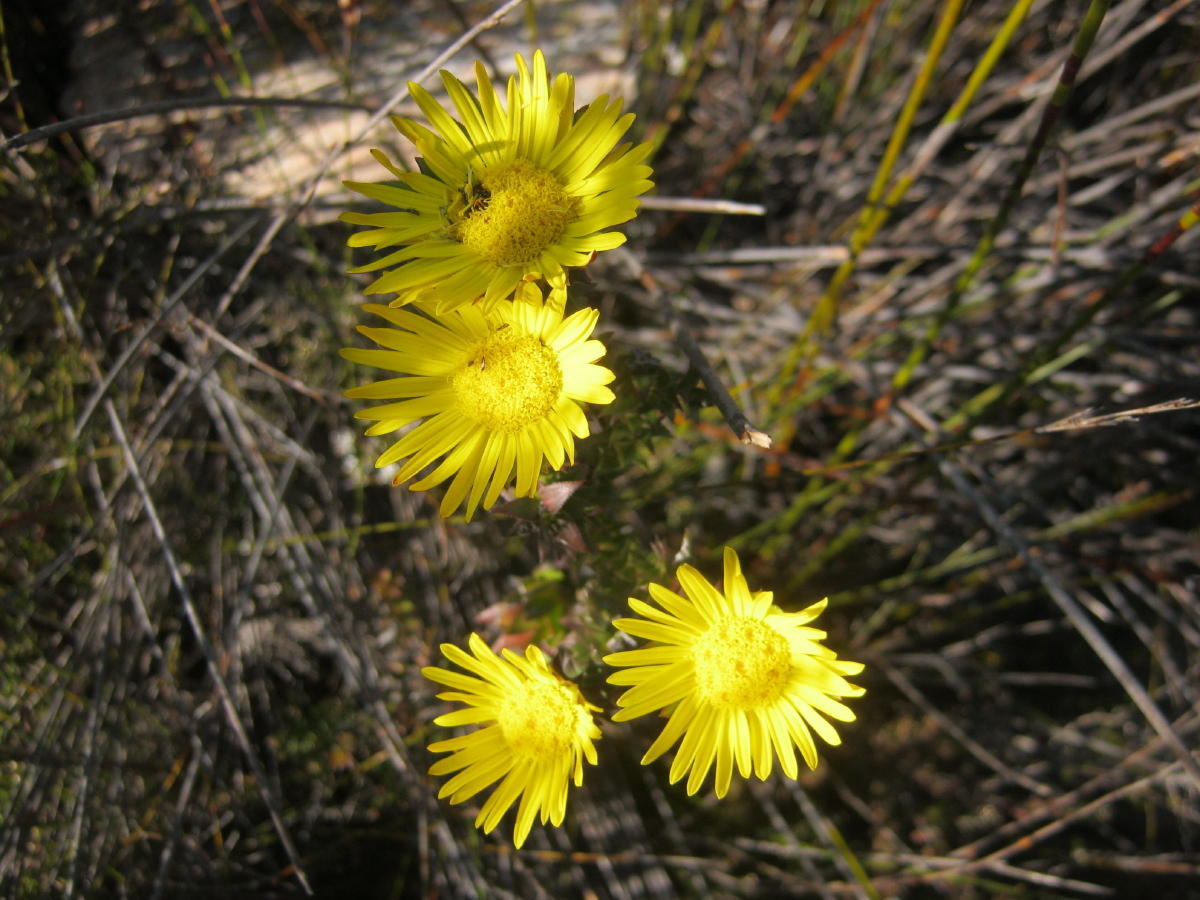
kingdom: Plantae
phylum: Tracheophyta
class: Magnoliopsida
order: Asterales
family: Asteraceae
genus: Oedera
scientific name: Oedera imbricata
